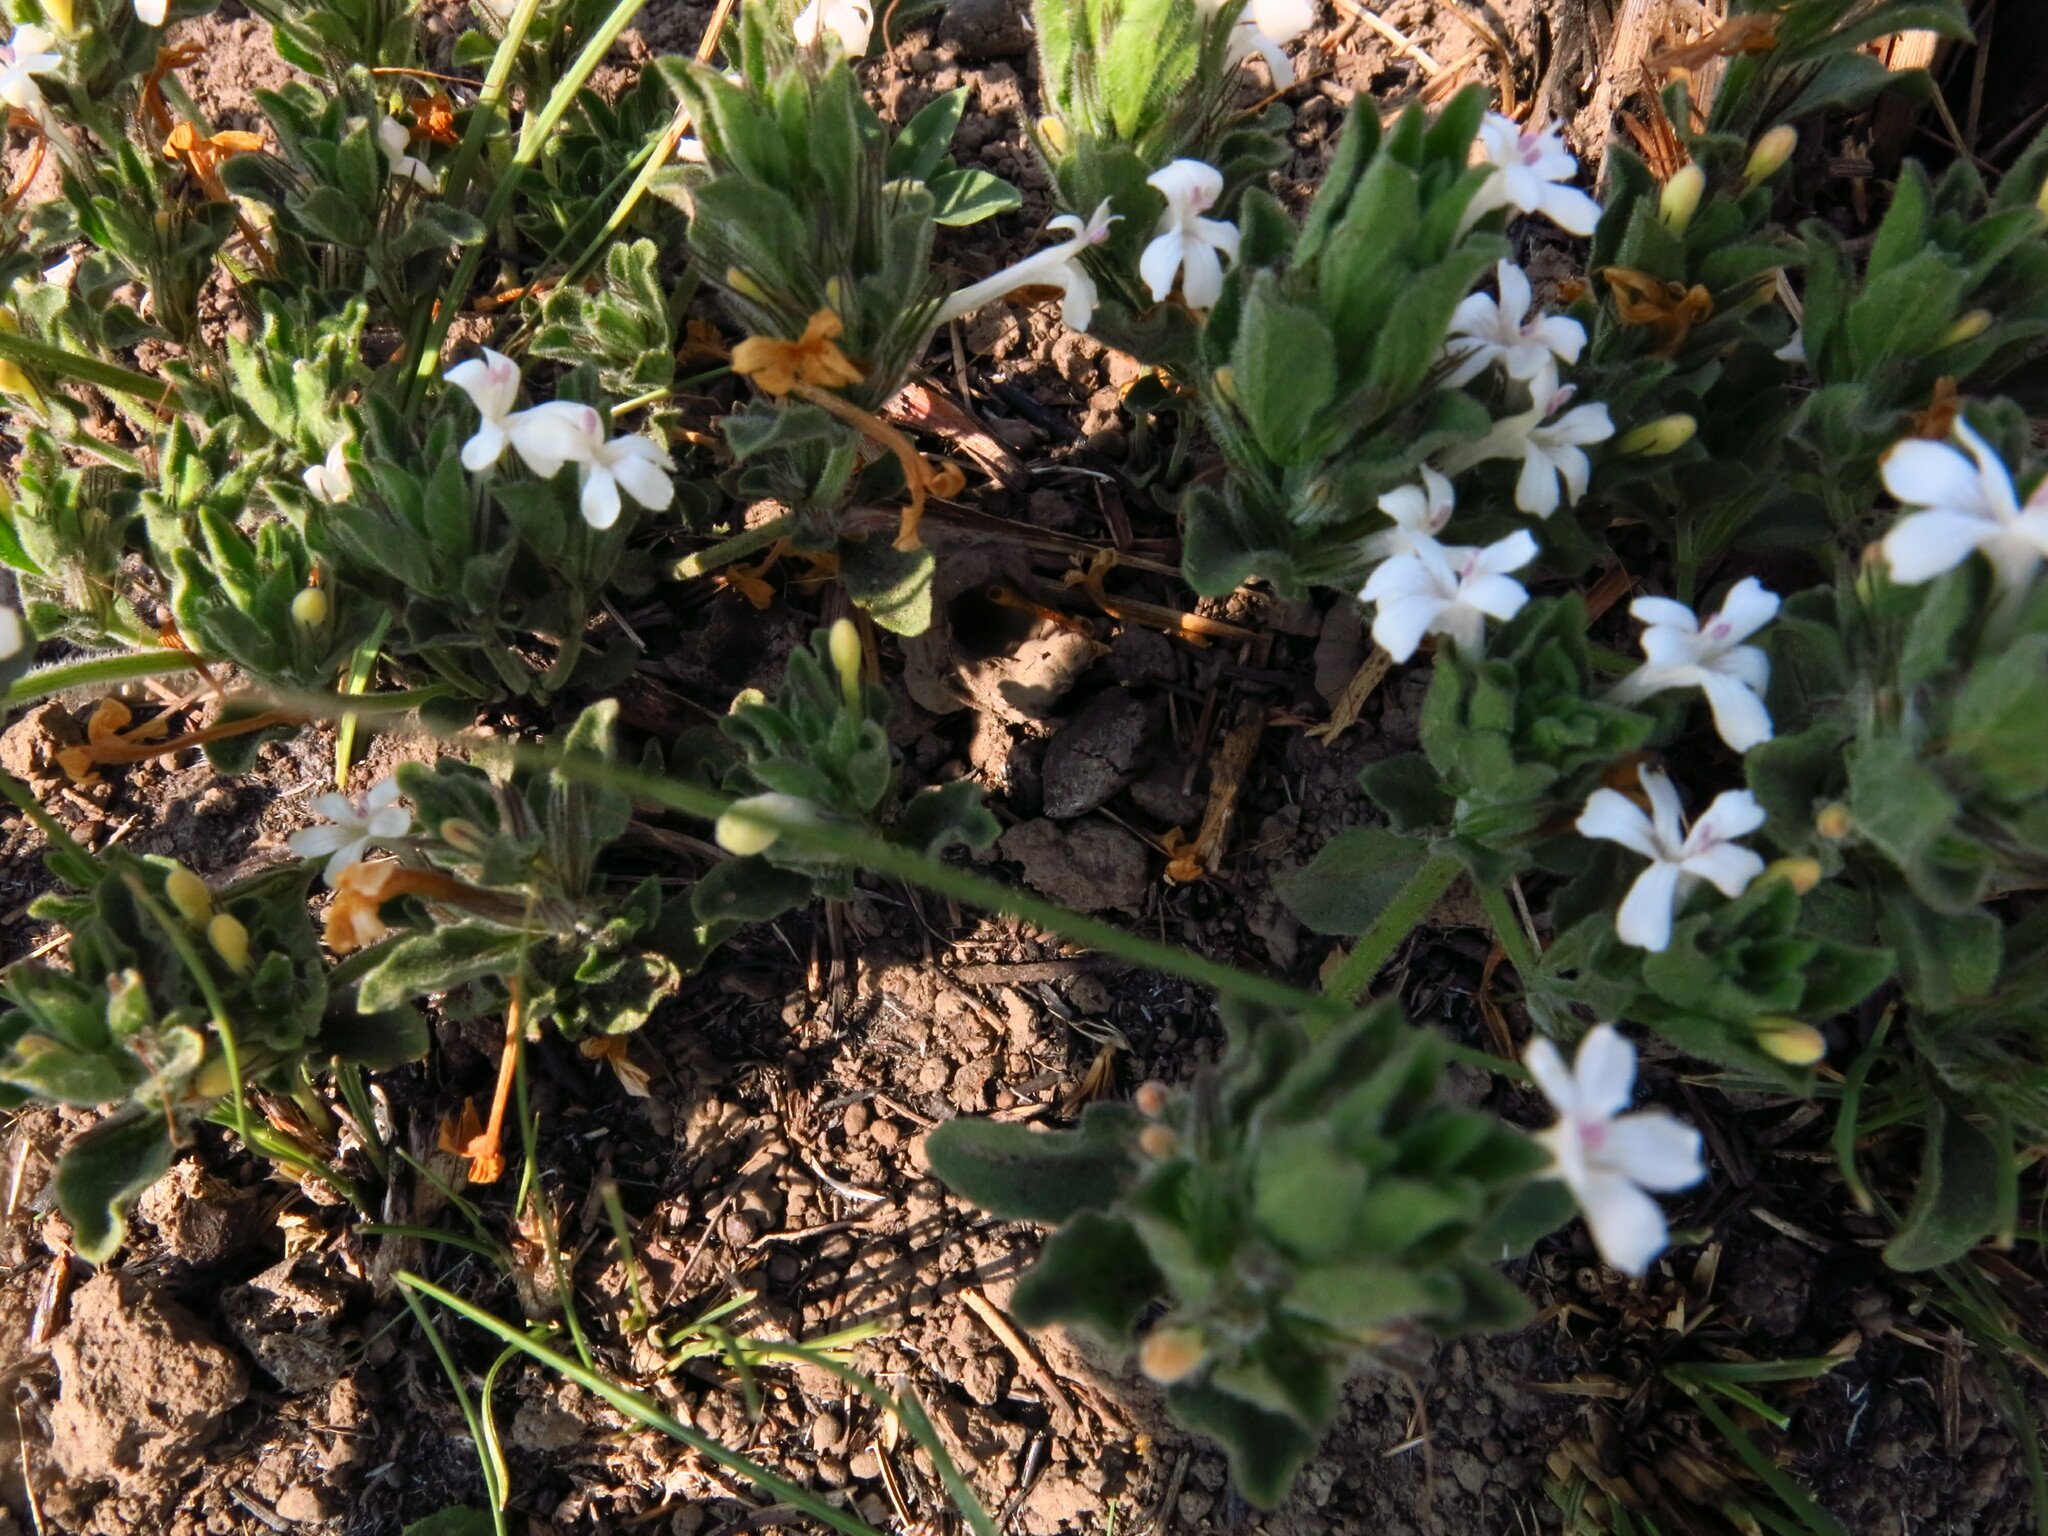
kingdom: Plantae
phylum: Tracheophyta
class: Magnoliopsida
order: Lamiales
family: Acanthaceae
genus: Dyschoriste
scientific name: Dyschoriste setigera
